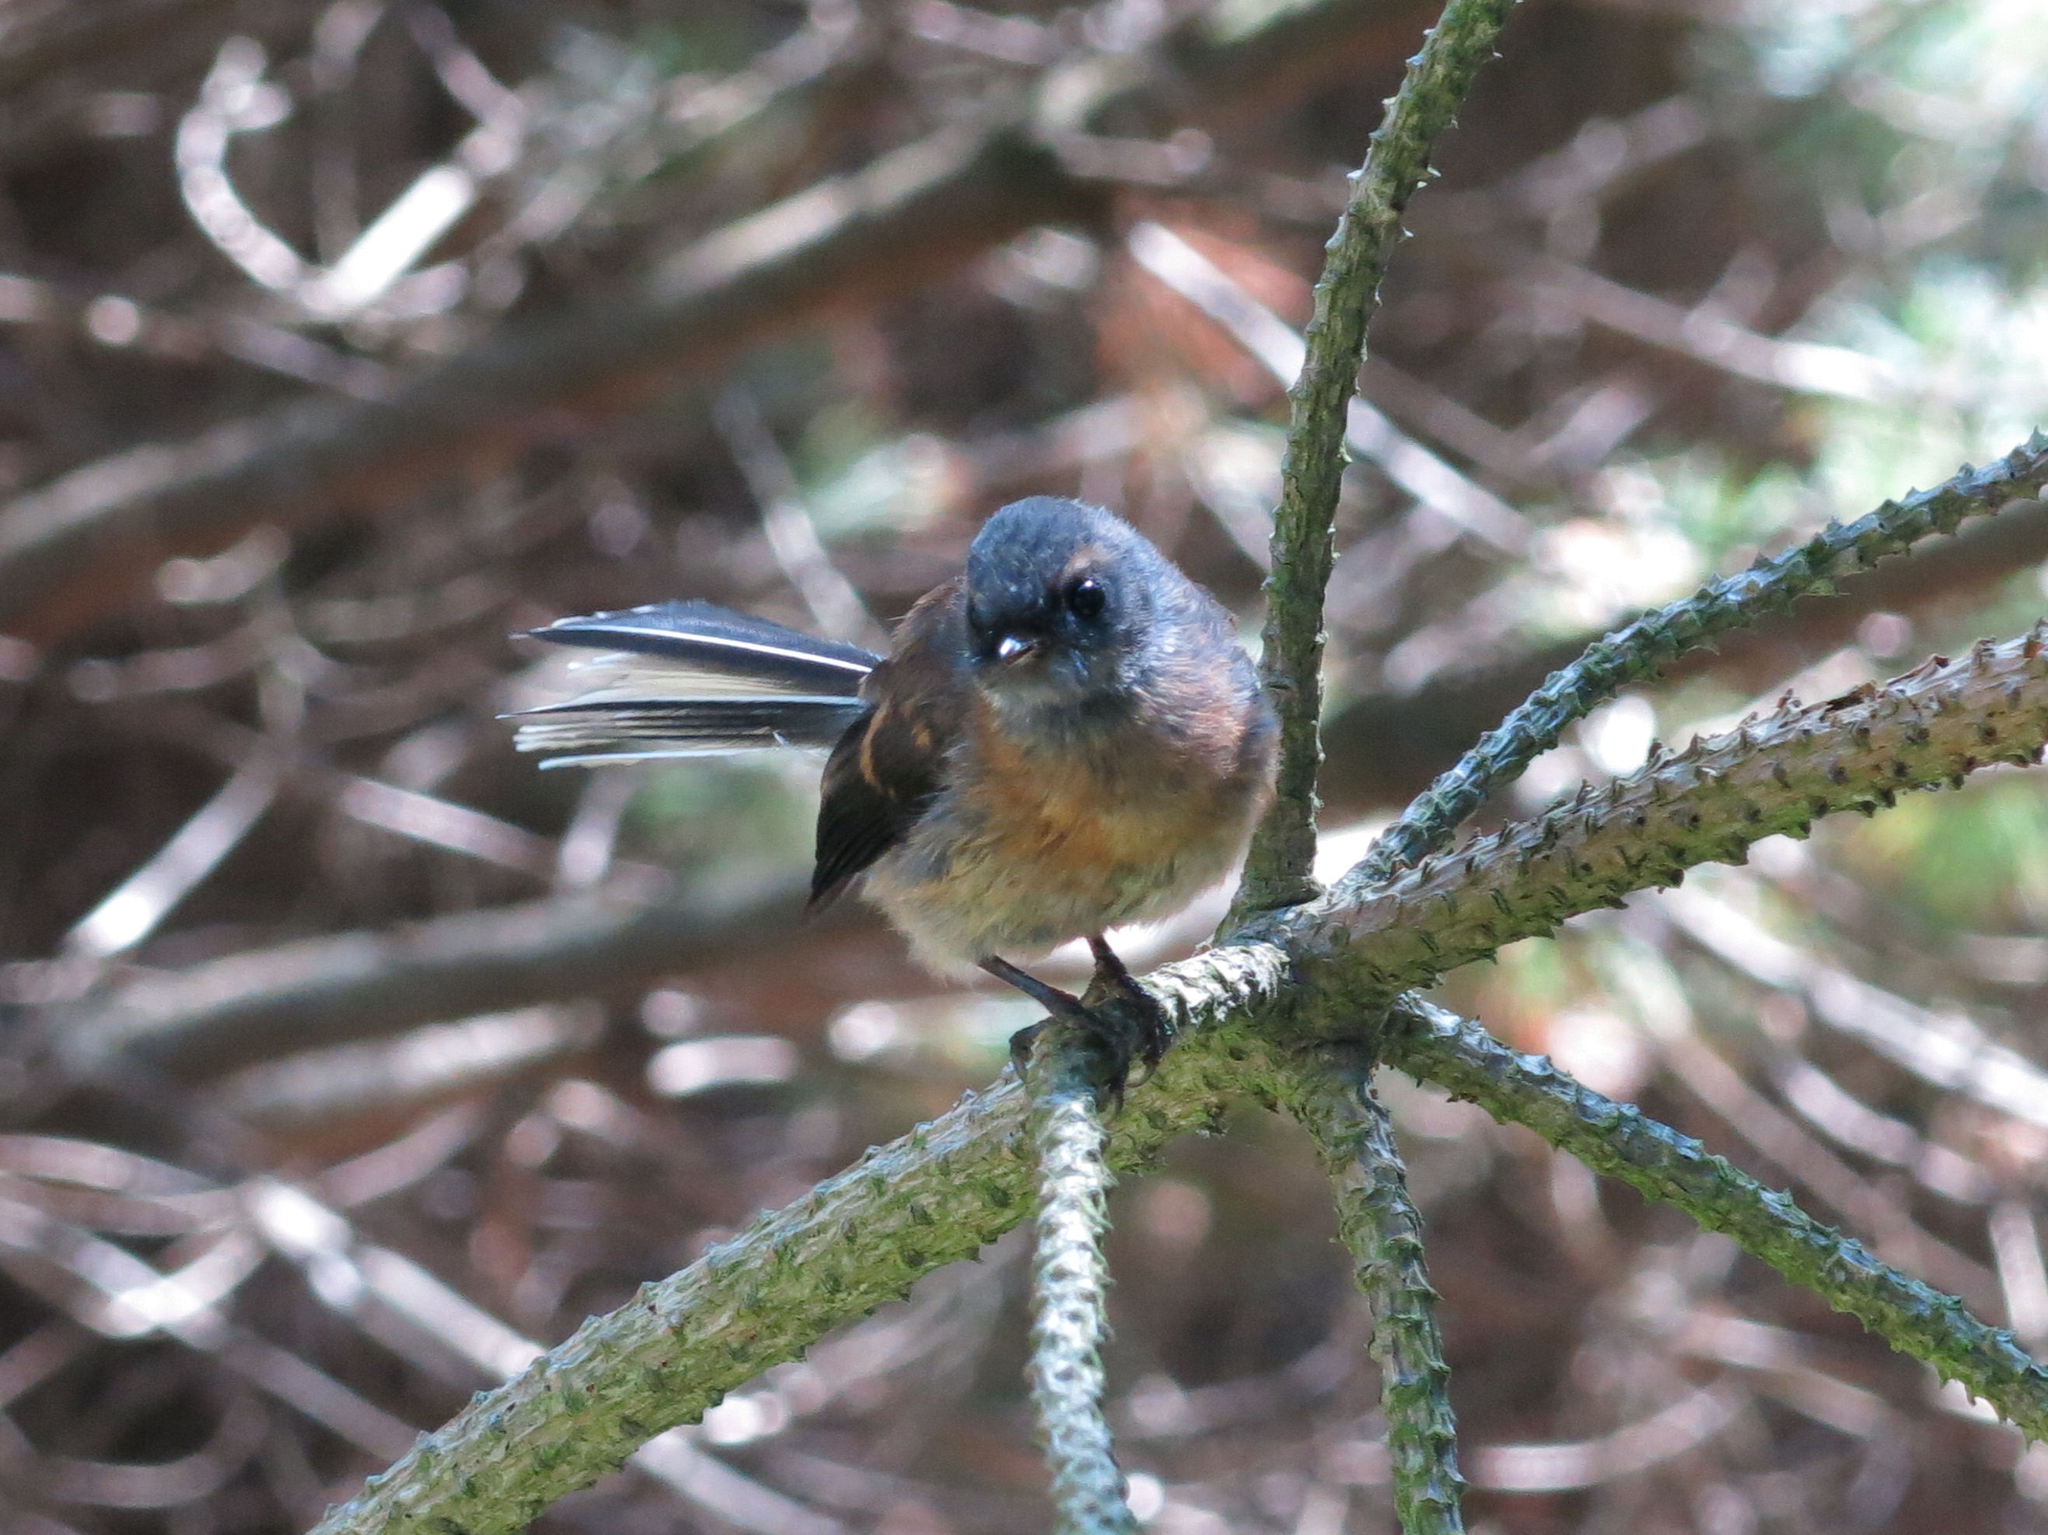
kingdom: Animalia
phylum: Chordata
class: Aves
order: Passeriformes
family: Rhipiduridae
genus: Rhipidura
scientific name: Rhipidura fuliginosa
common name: New zealand fantail
